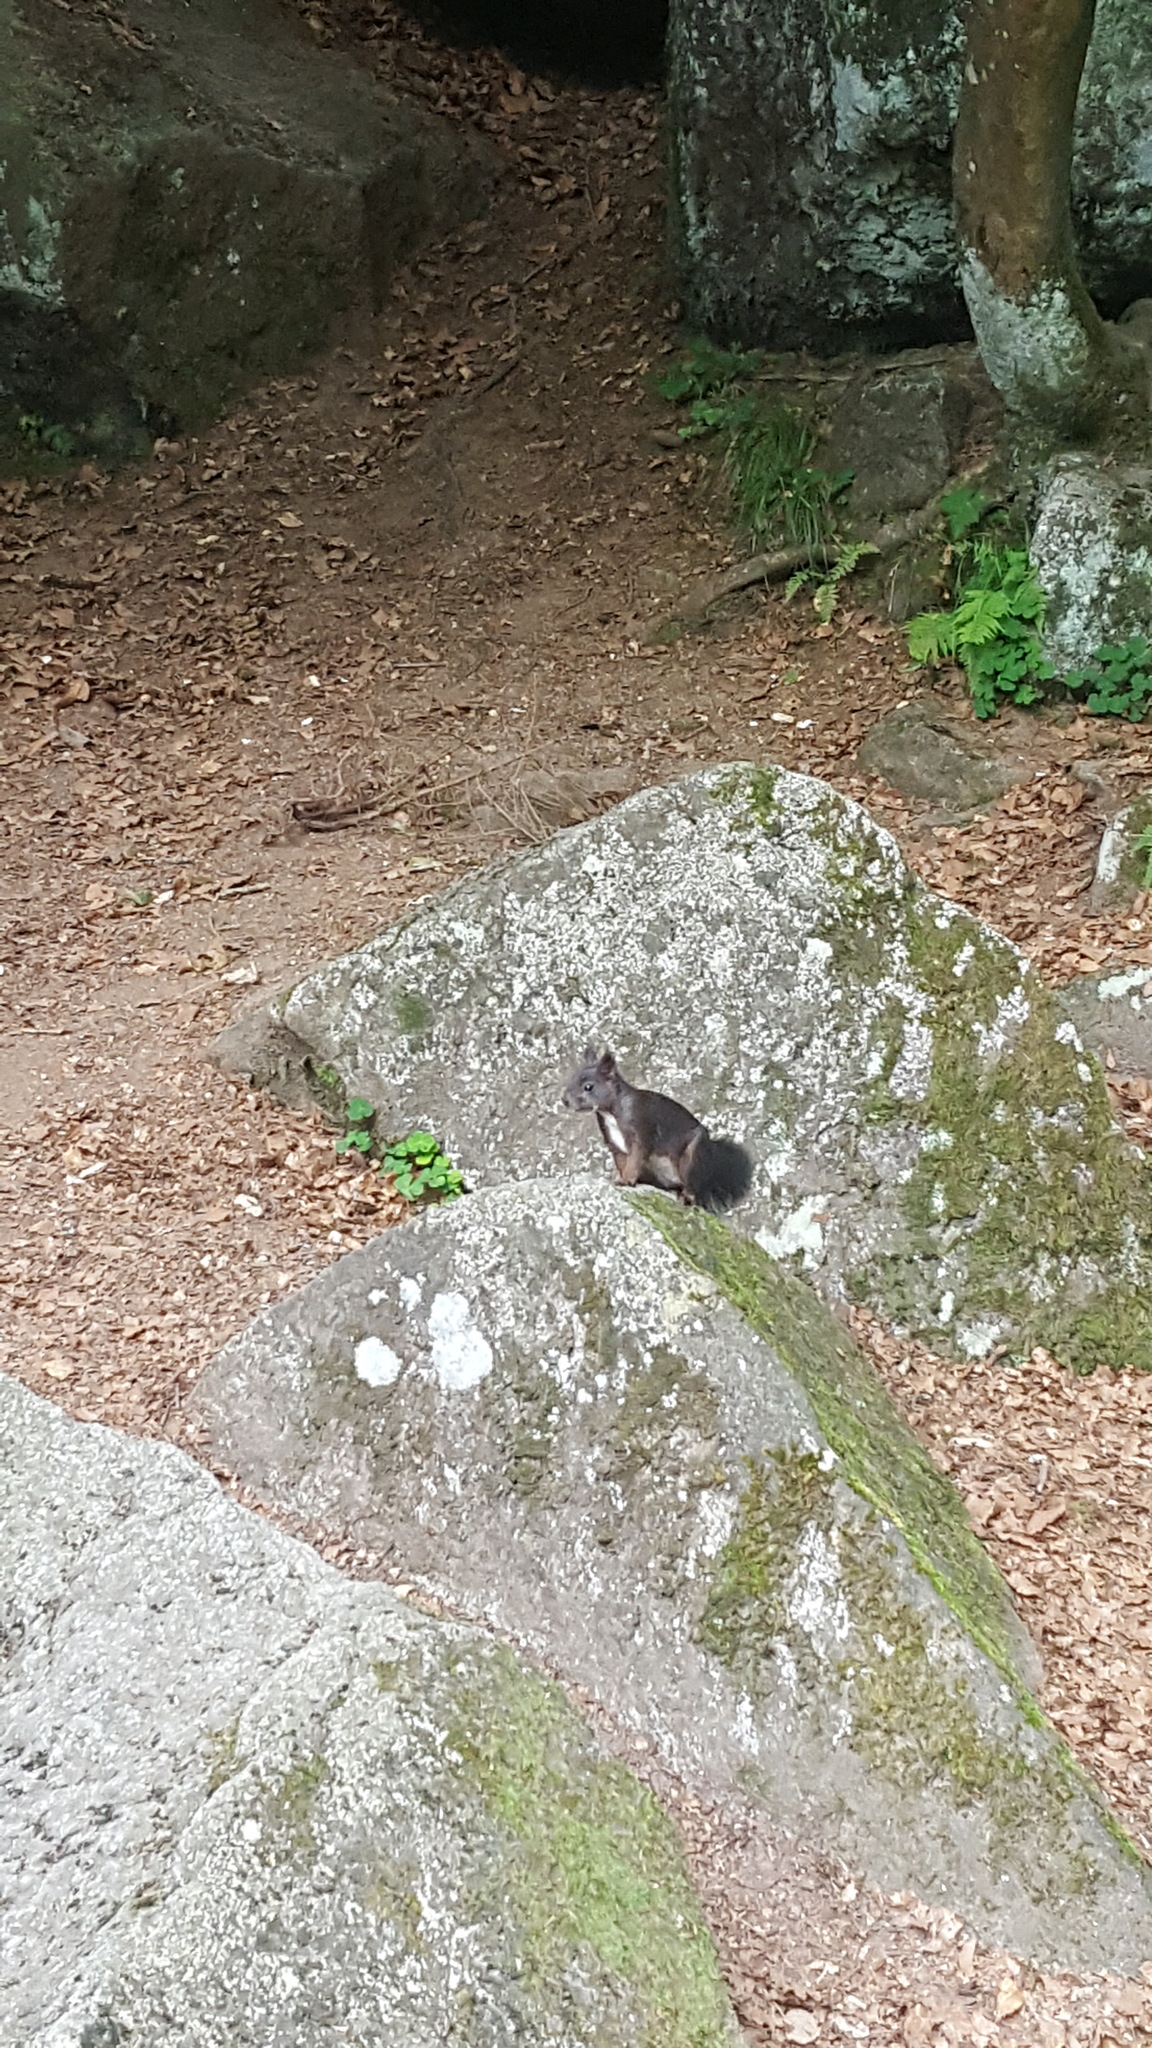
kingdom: Animalia
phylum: Chordata
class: Mammalia
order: Rodentia
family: Sciuridae
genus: Sciurus
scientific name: Sciurus vulgaris
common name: Eurasian red squirrel
